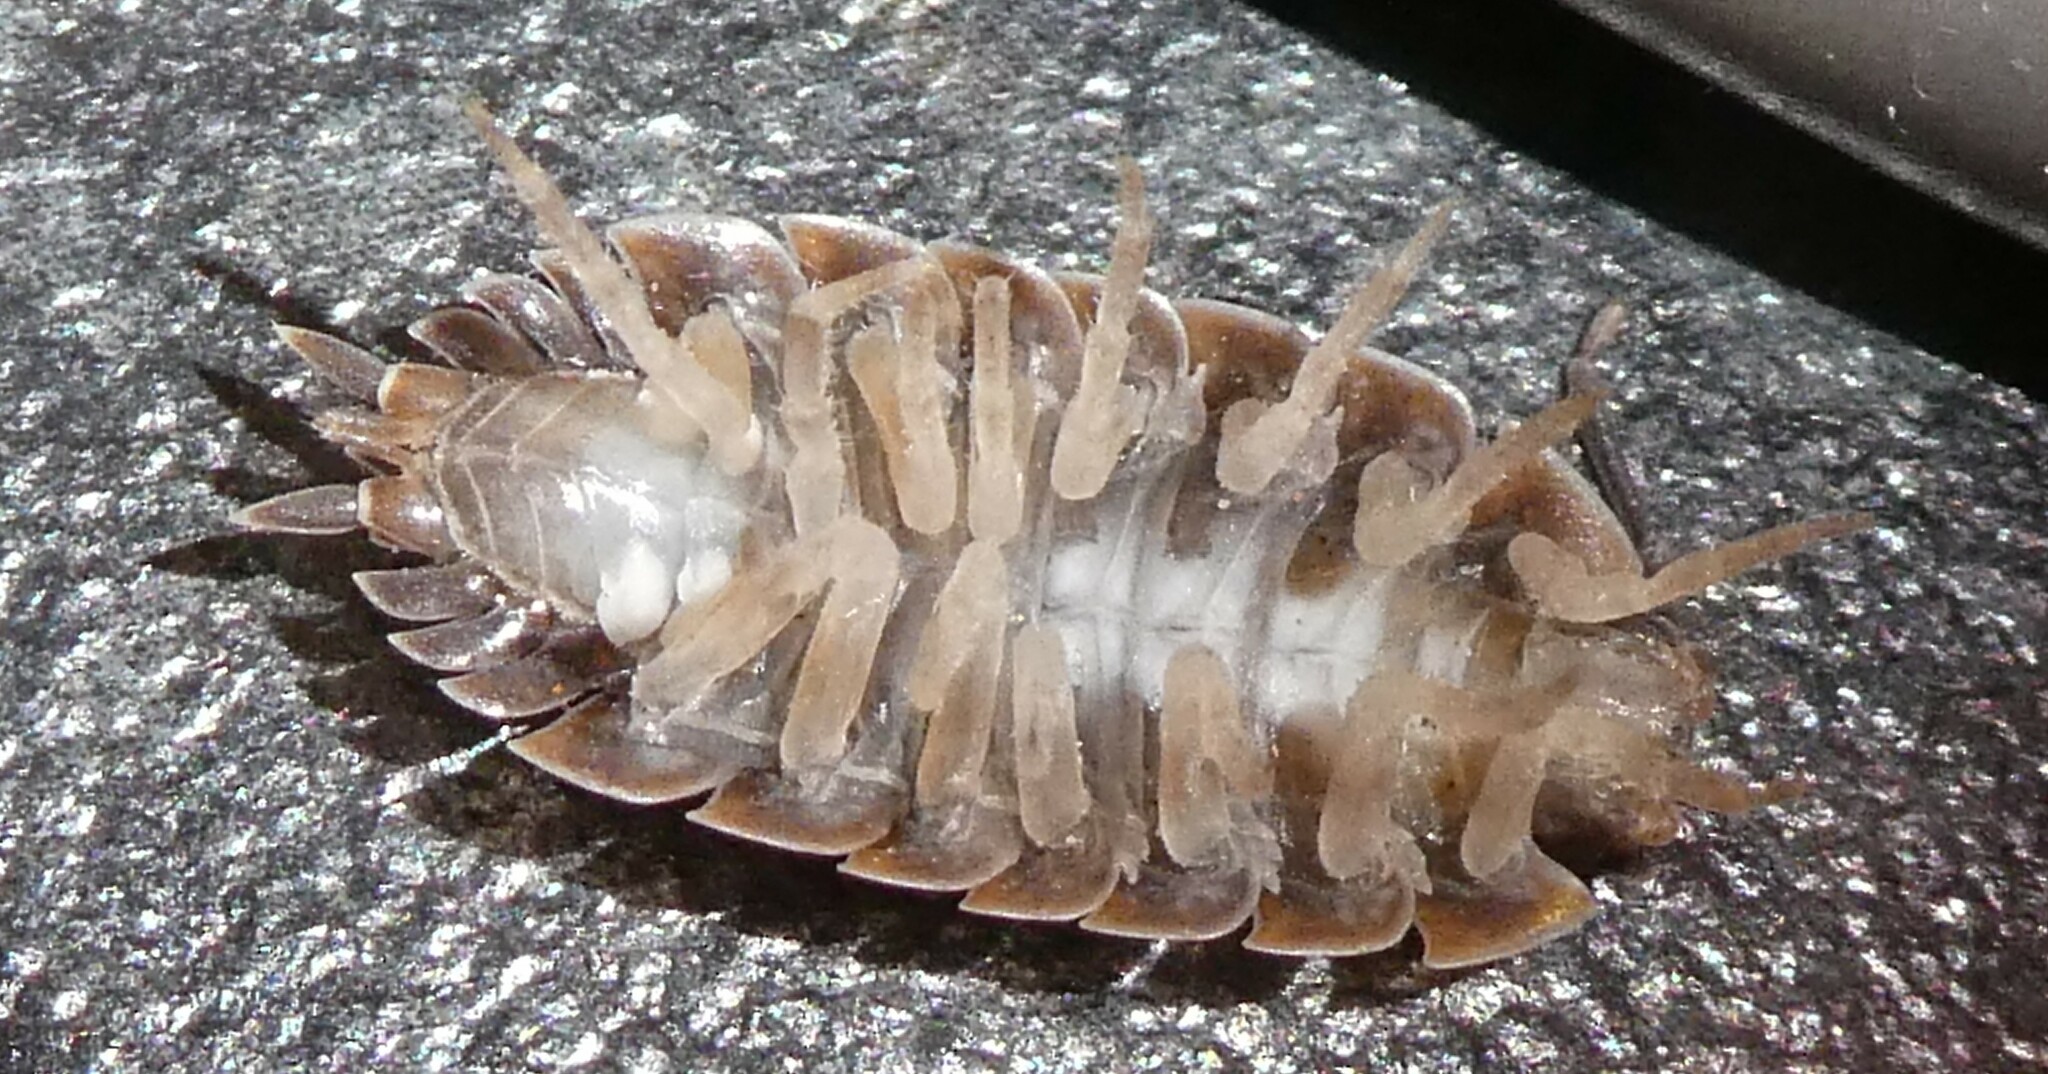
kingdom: Animalia
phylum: Arthropoda
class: Malacostraca
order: Isopoda
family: Porcellionidae
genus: Porcellio
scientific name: Porcellio scaber
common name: Common rough woodlouse
